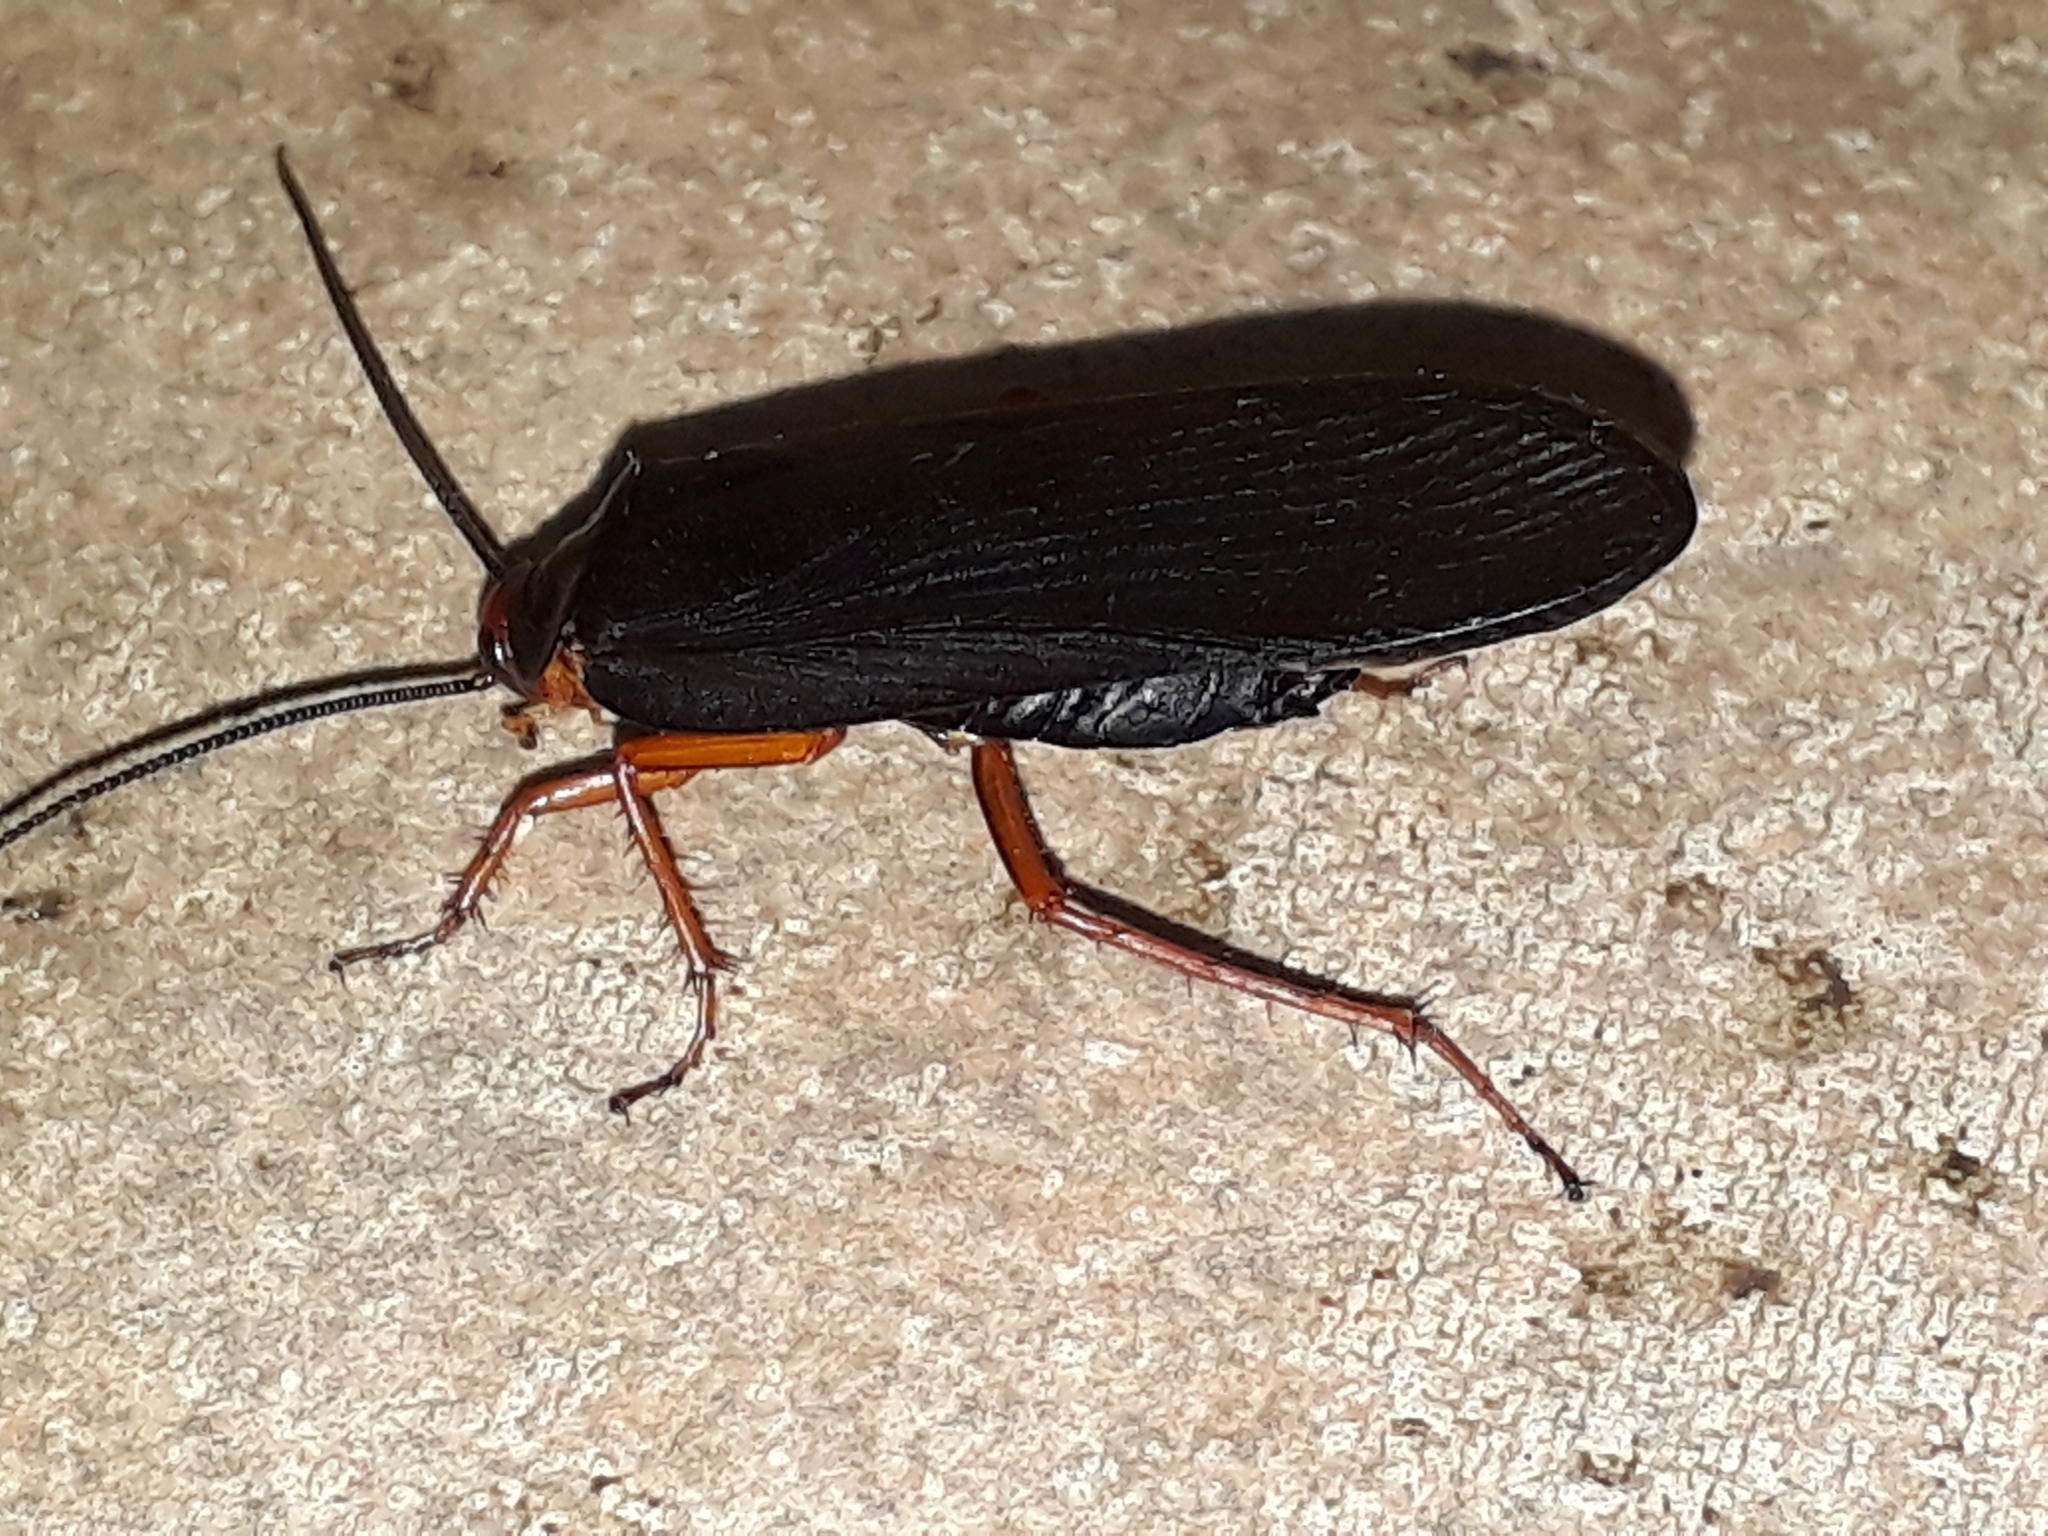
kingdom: Animalia
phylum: Arthropoda
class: Insecta
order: Blattodea
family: Blattidae
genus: Deropeltis
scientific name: Deropeltis erythrocephala
